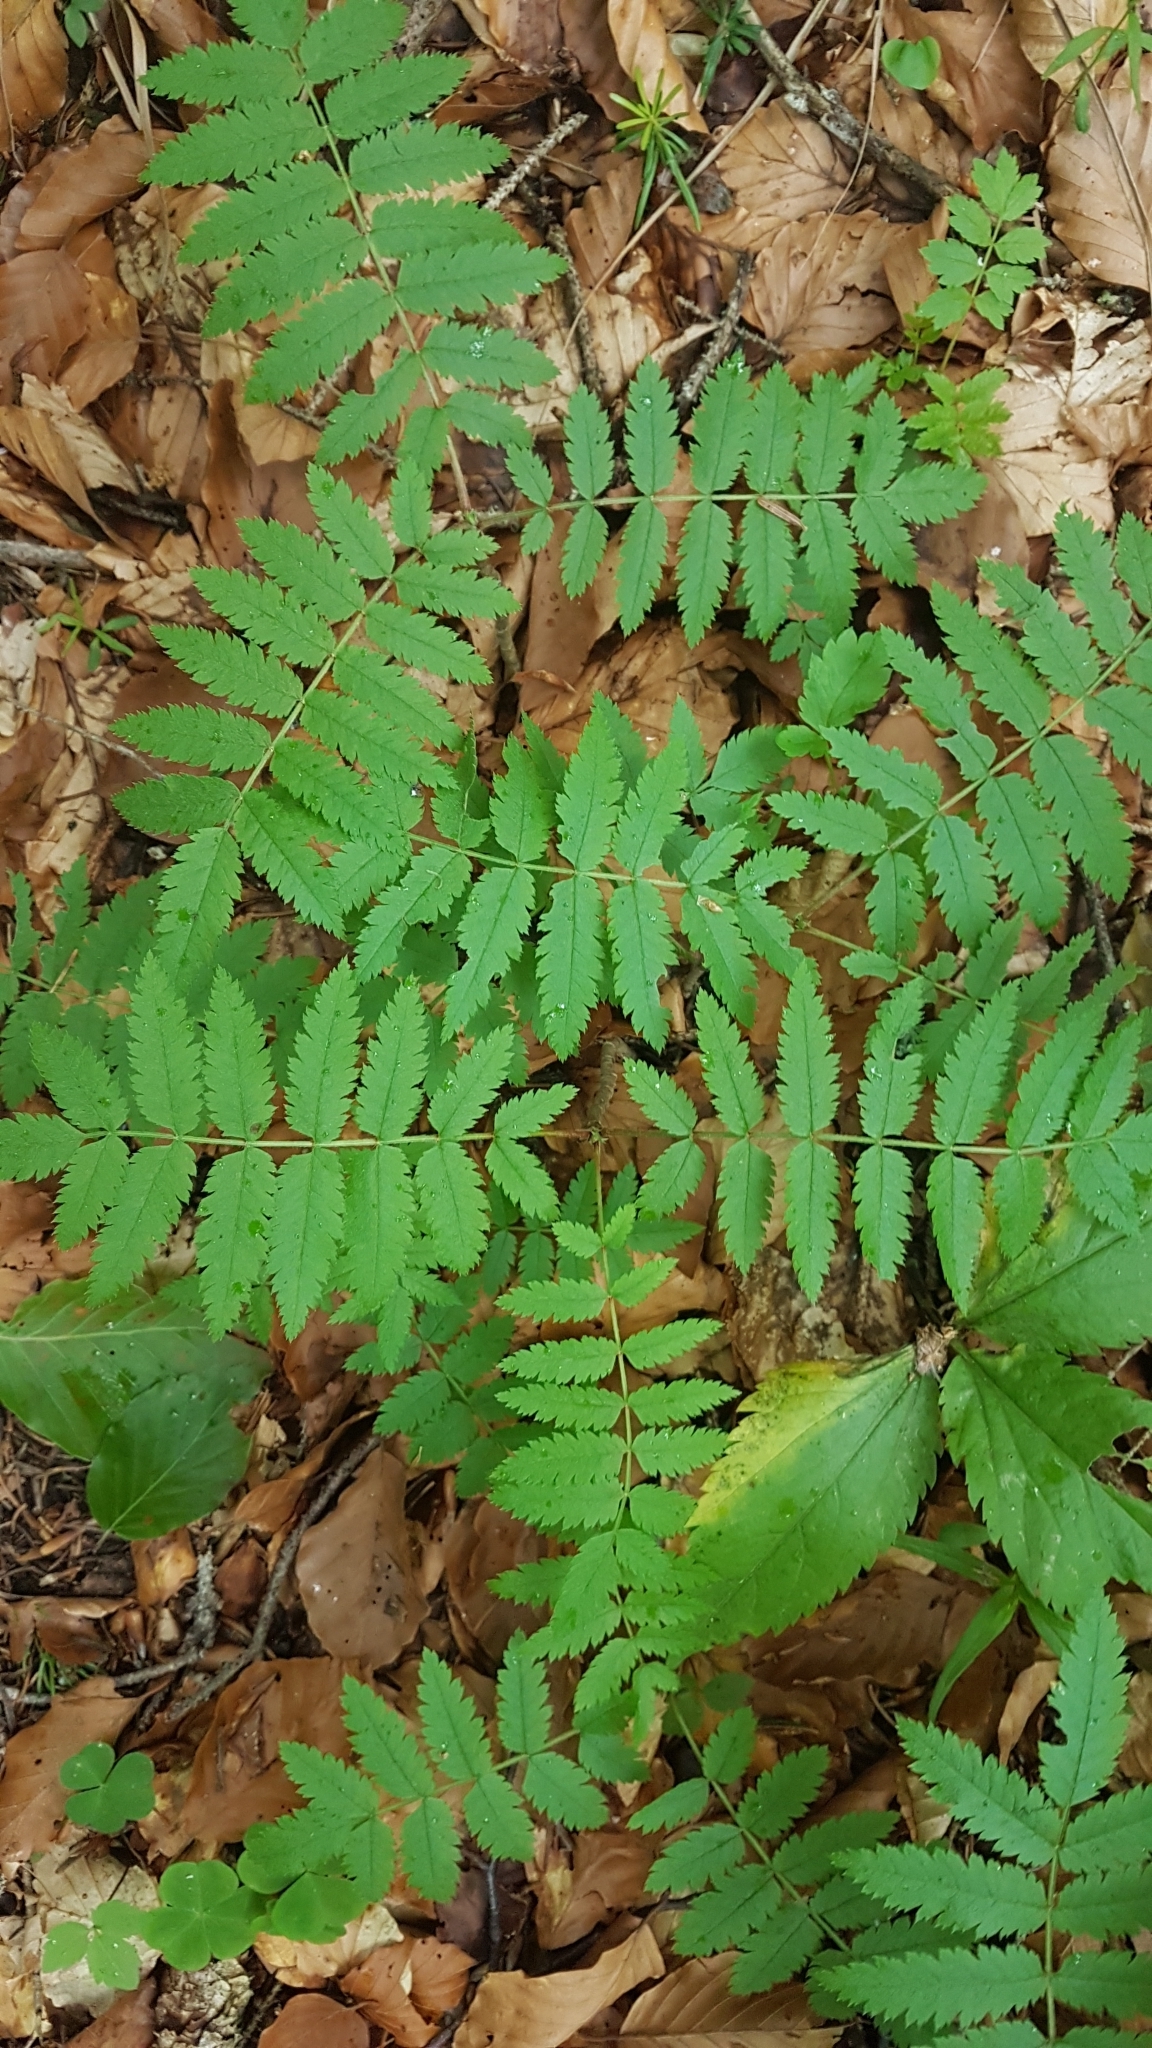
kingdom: Plantae
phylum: Tracheophyta
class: Magnoliopsida
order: Rosales
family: Rosaceae
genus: Sorbus
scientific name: Sorbus aucuparia
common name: Rowan
